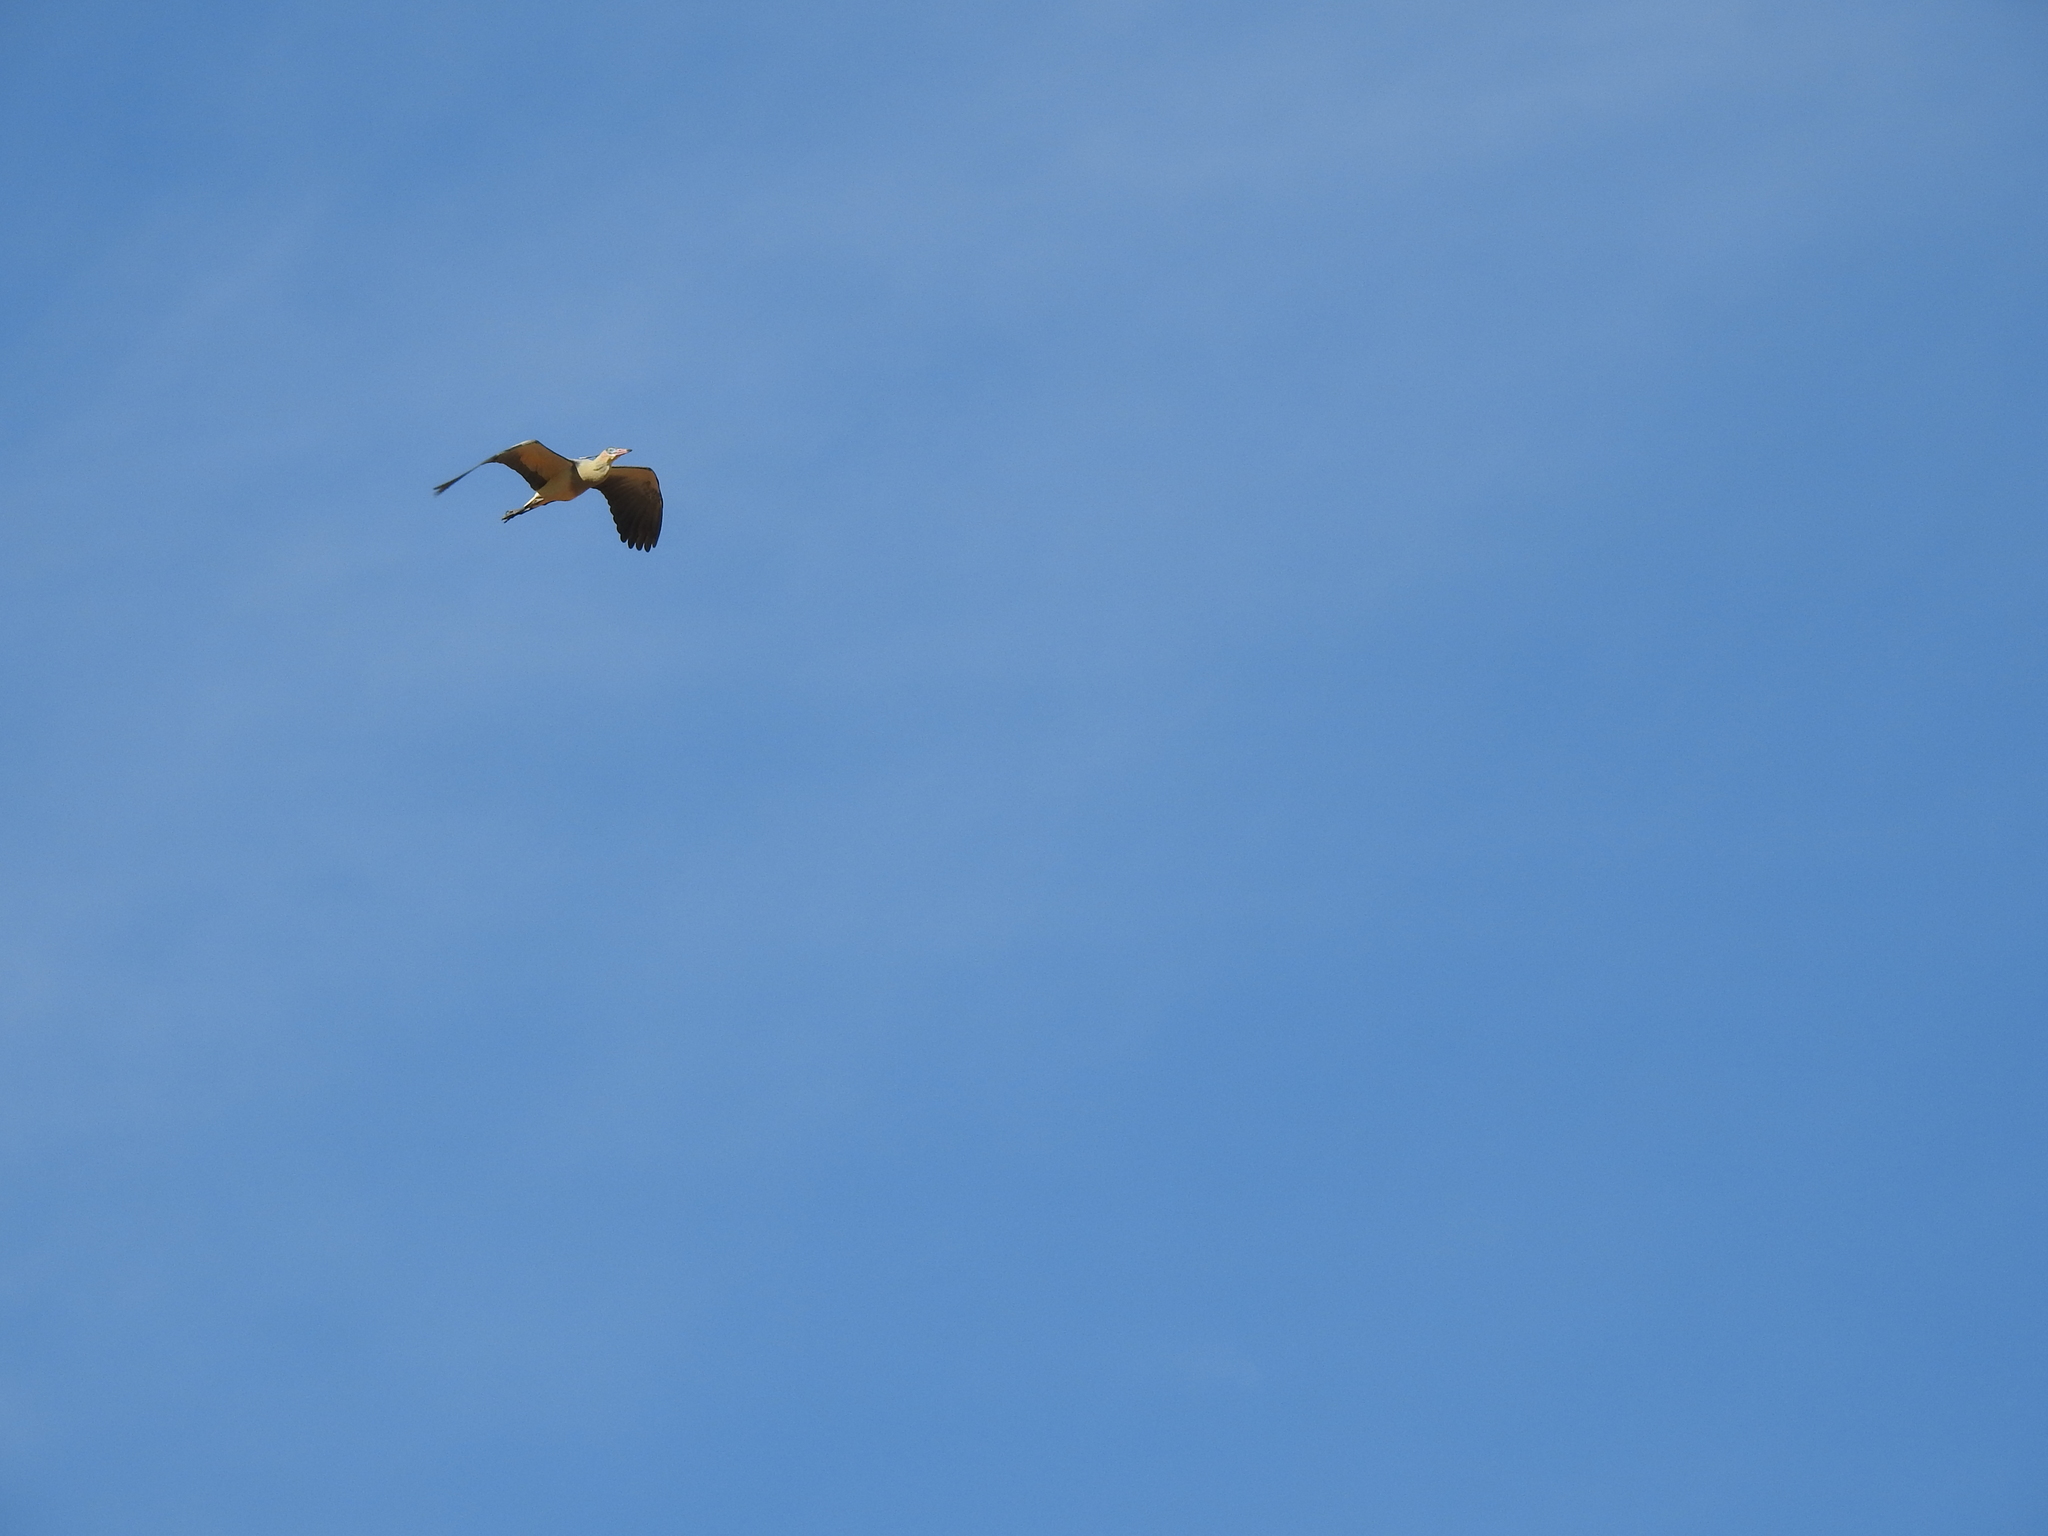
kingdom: Animalia
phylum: Chordata
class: Aves
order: Pelecaniformes
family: Ardeidae
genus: Syrigma
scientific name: Syrigma sibilatrix
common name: Whistling heron
